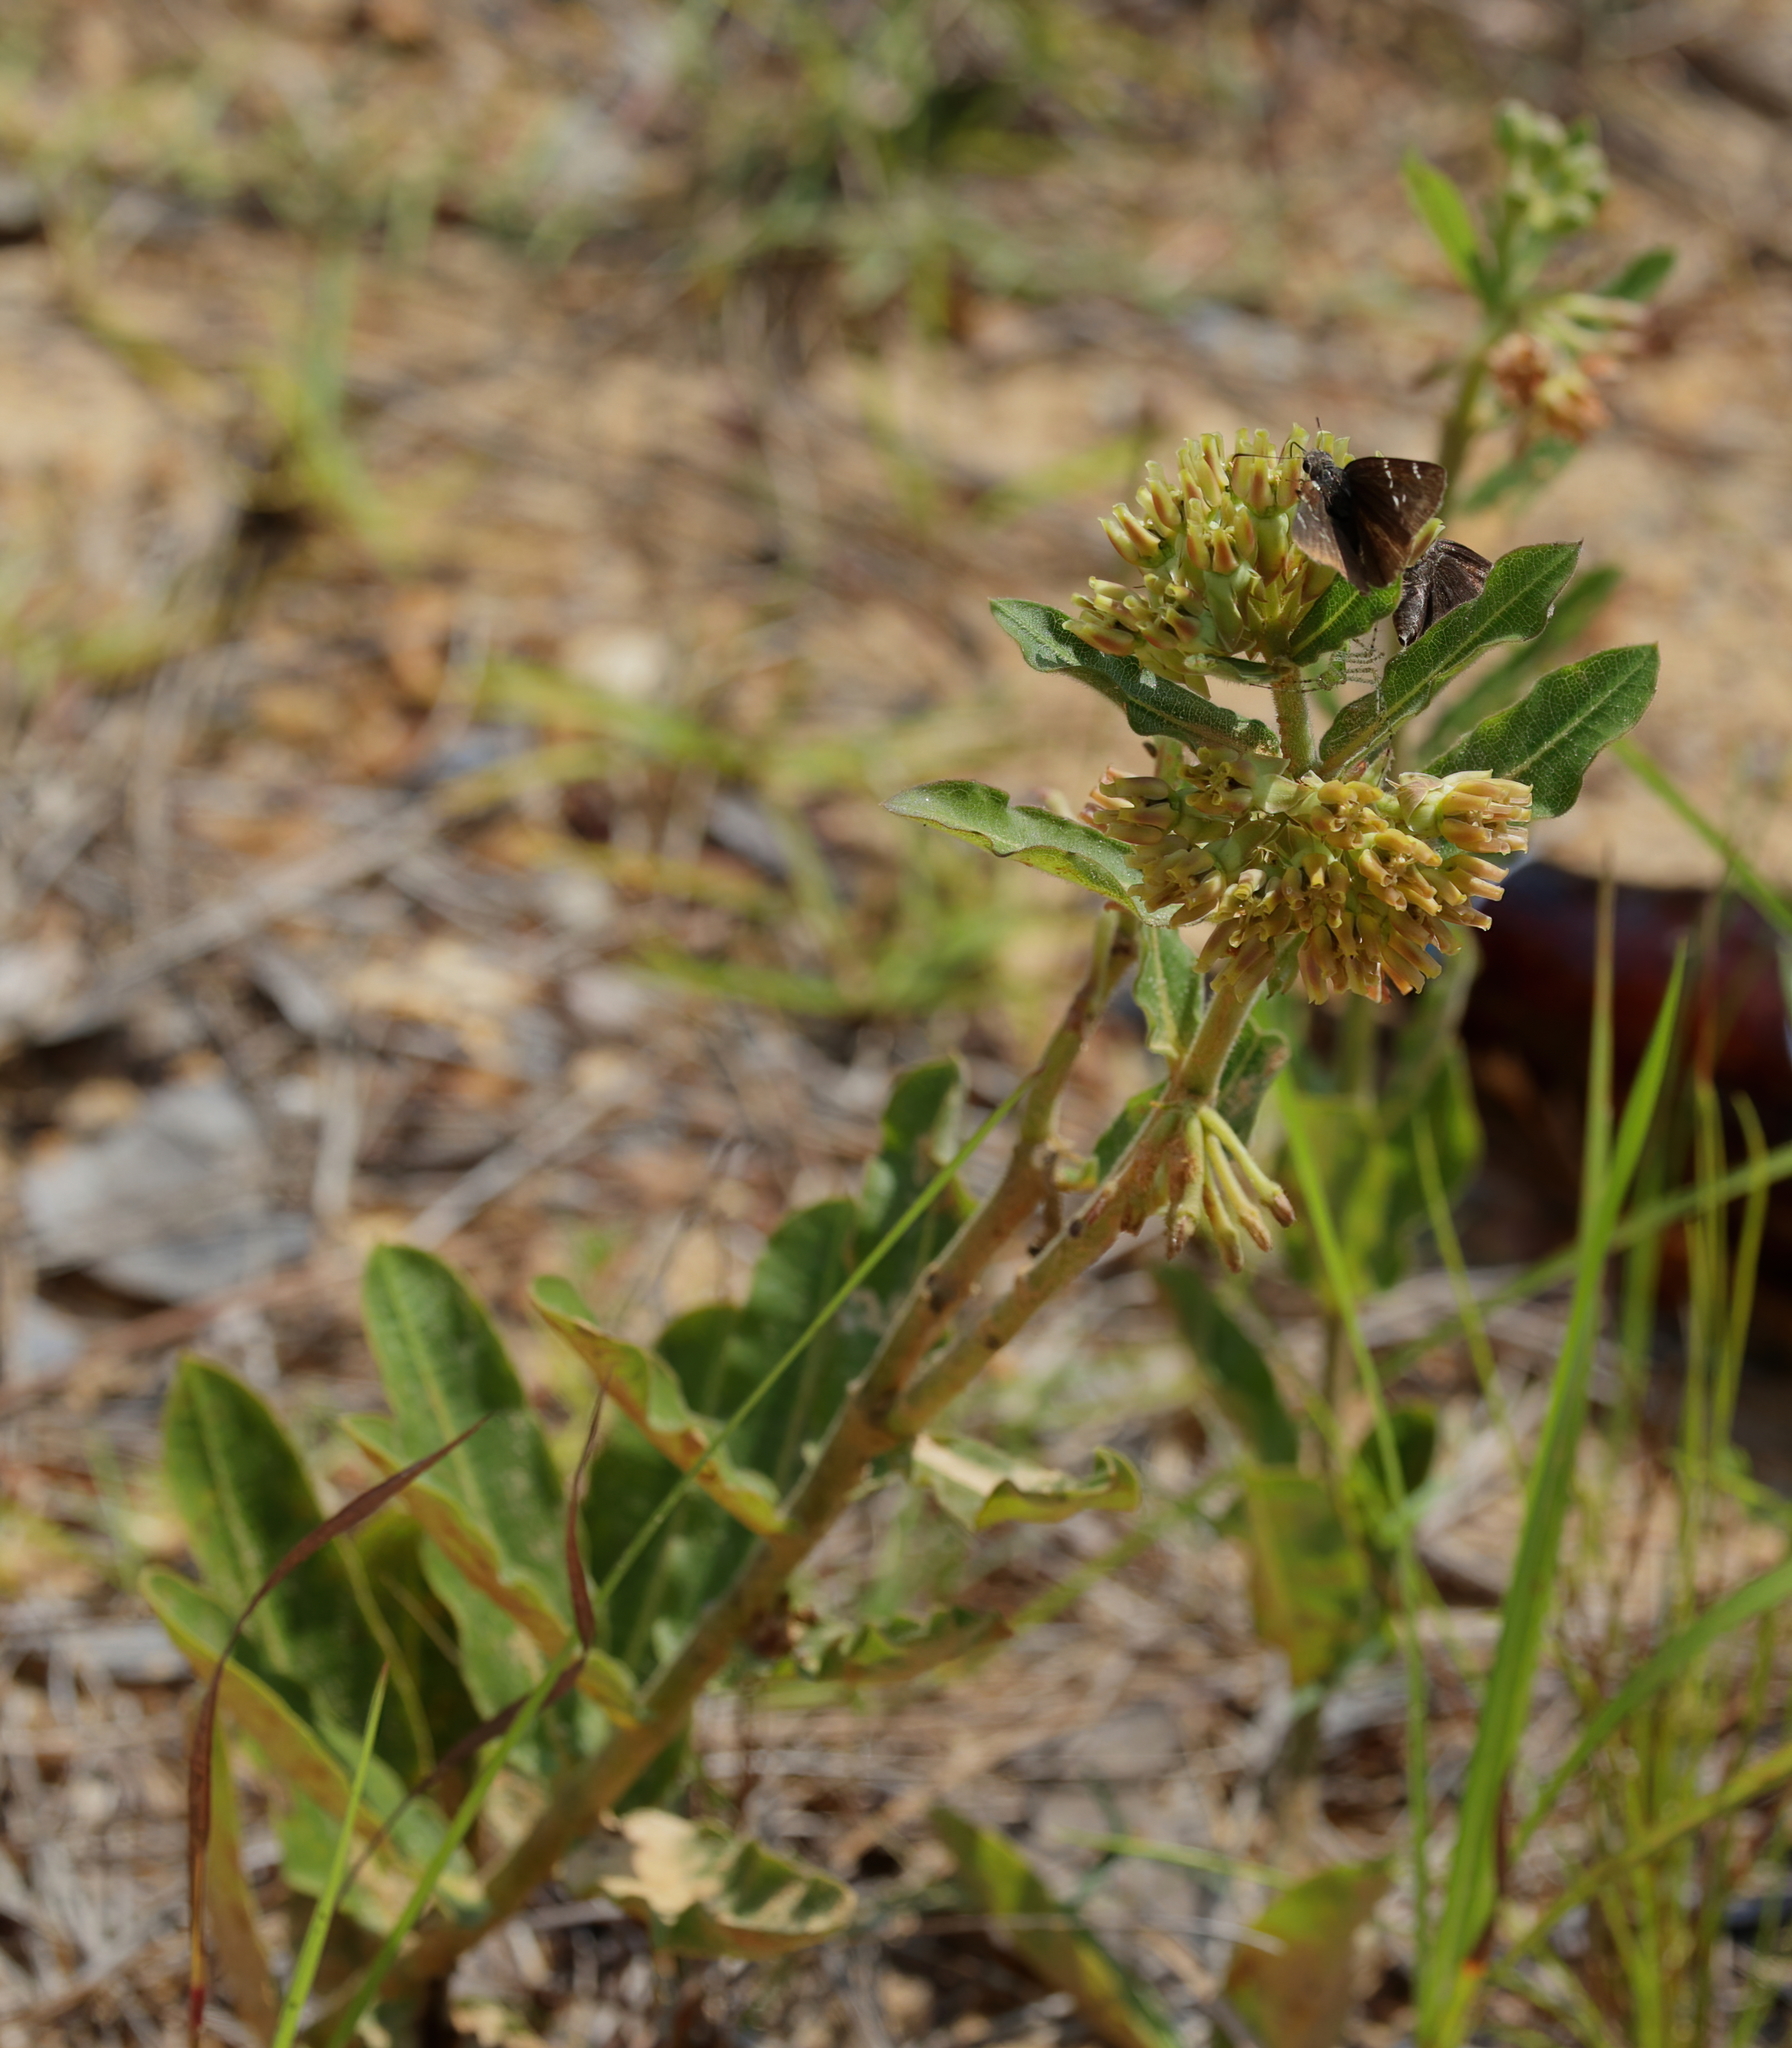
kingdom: Plantae
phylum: Tracheophyta
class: Magnoliopsida
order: Gentianales
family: Apocynaceae
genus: Asclepias
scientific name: Asclepias obovata
